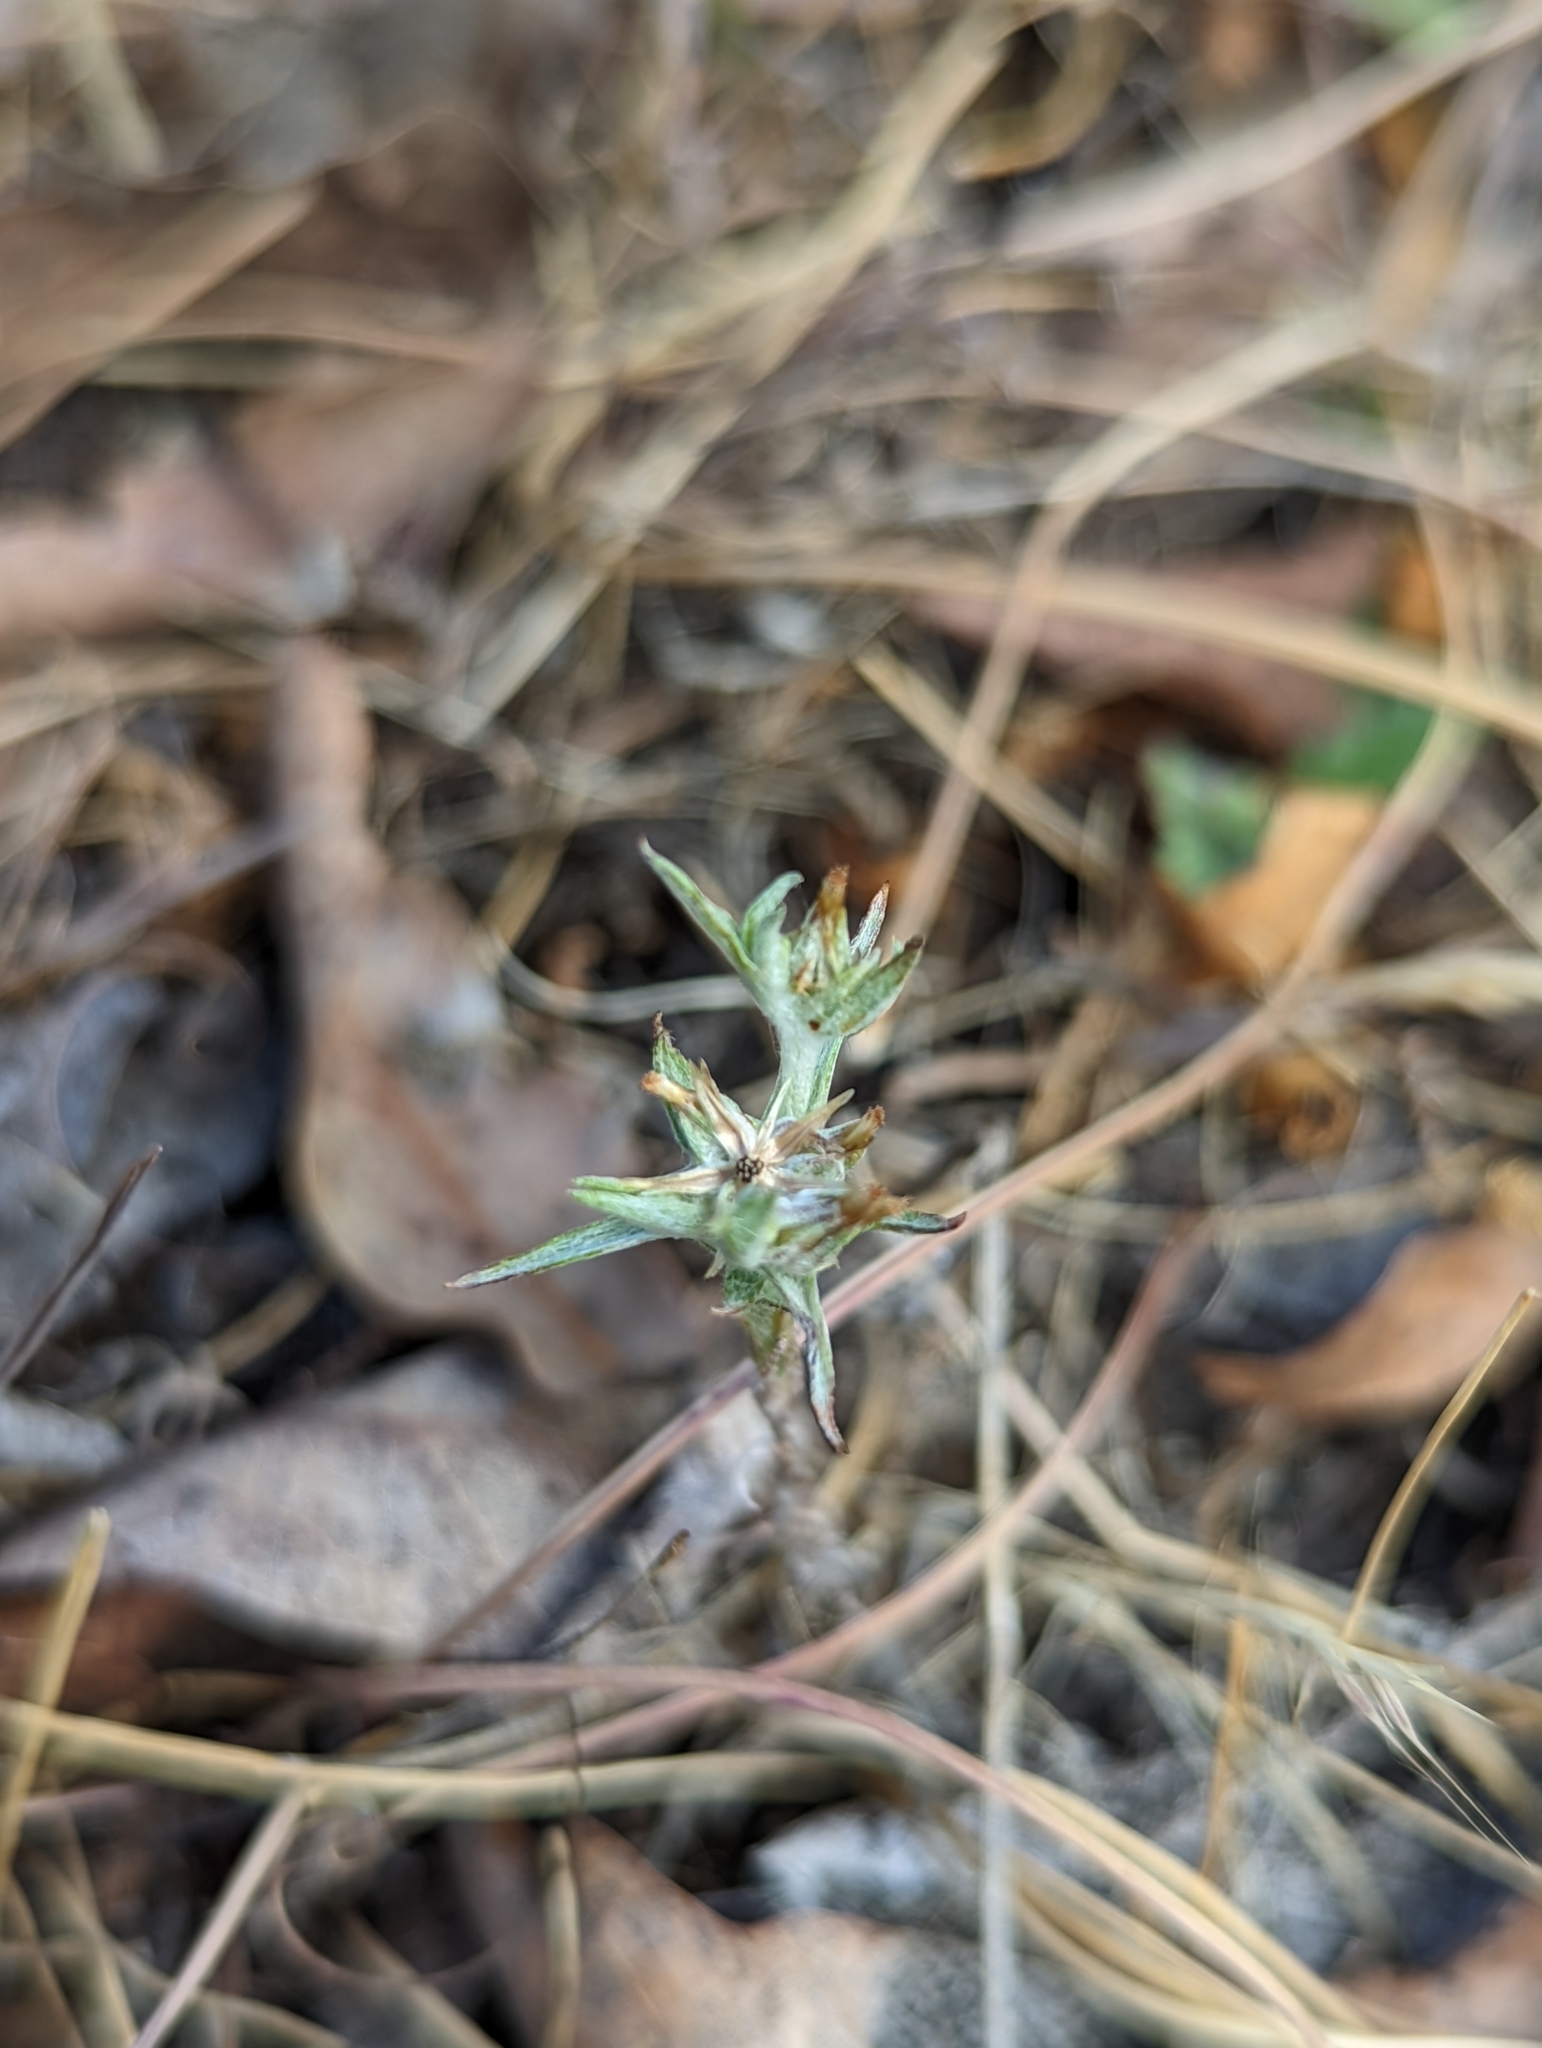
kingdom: Plantae
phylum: Tracheophyta
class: Magnoliopsida
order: Asterales
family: Asteraceae
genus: Logfia
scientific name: Logfia gallica
